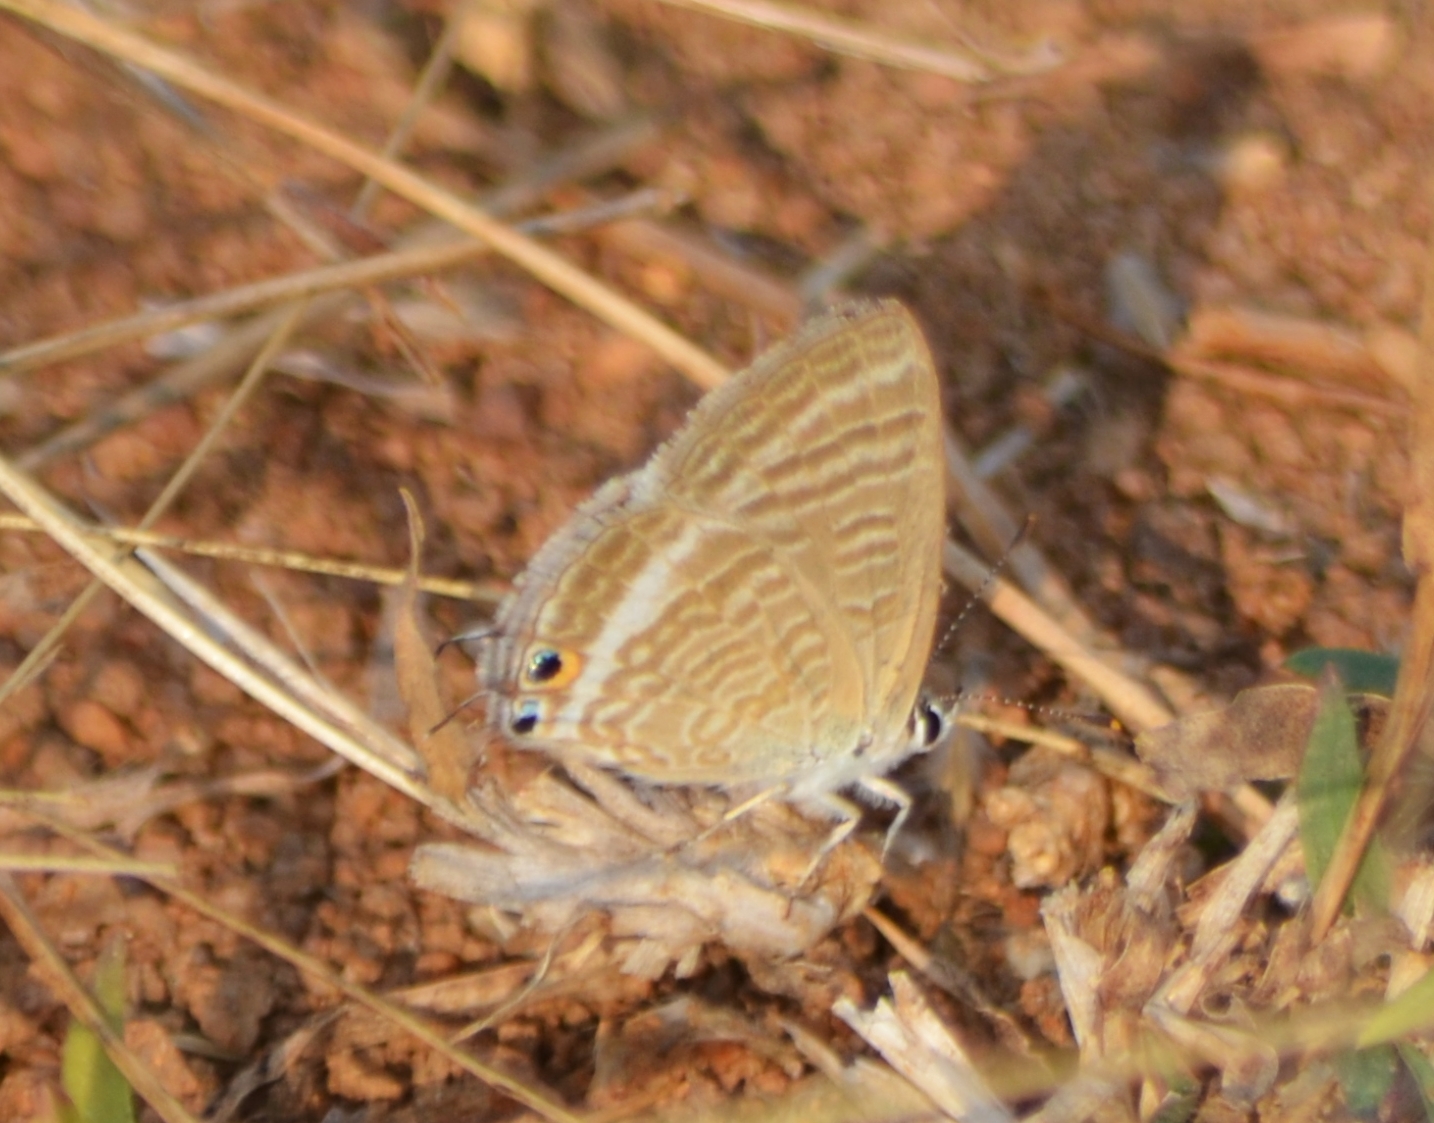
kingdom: Animalia
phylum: Arthropoda
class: Insecta
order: Lepidoptera
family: Lycaenidae
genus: Lampides
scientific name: Lampides boeticus
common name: Long-tailed blue
